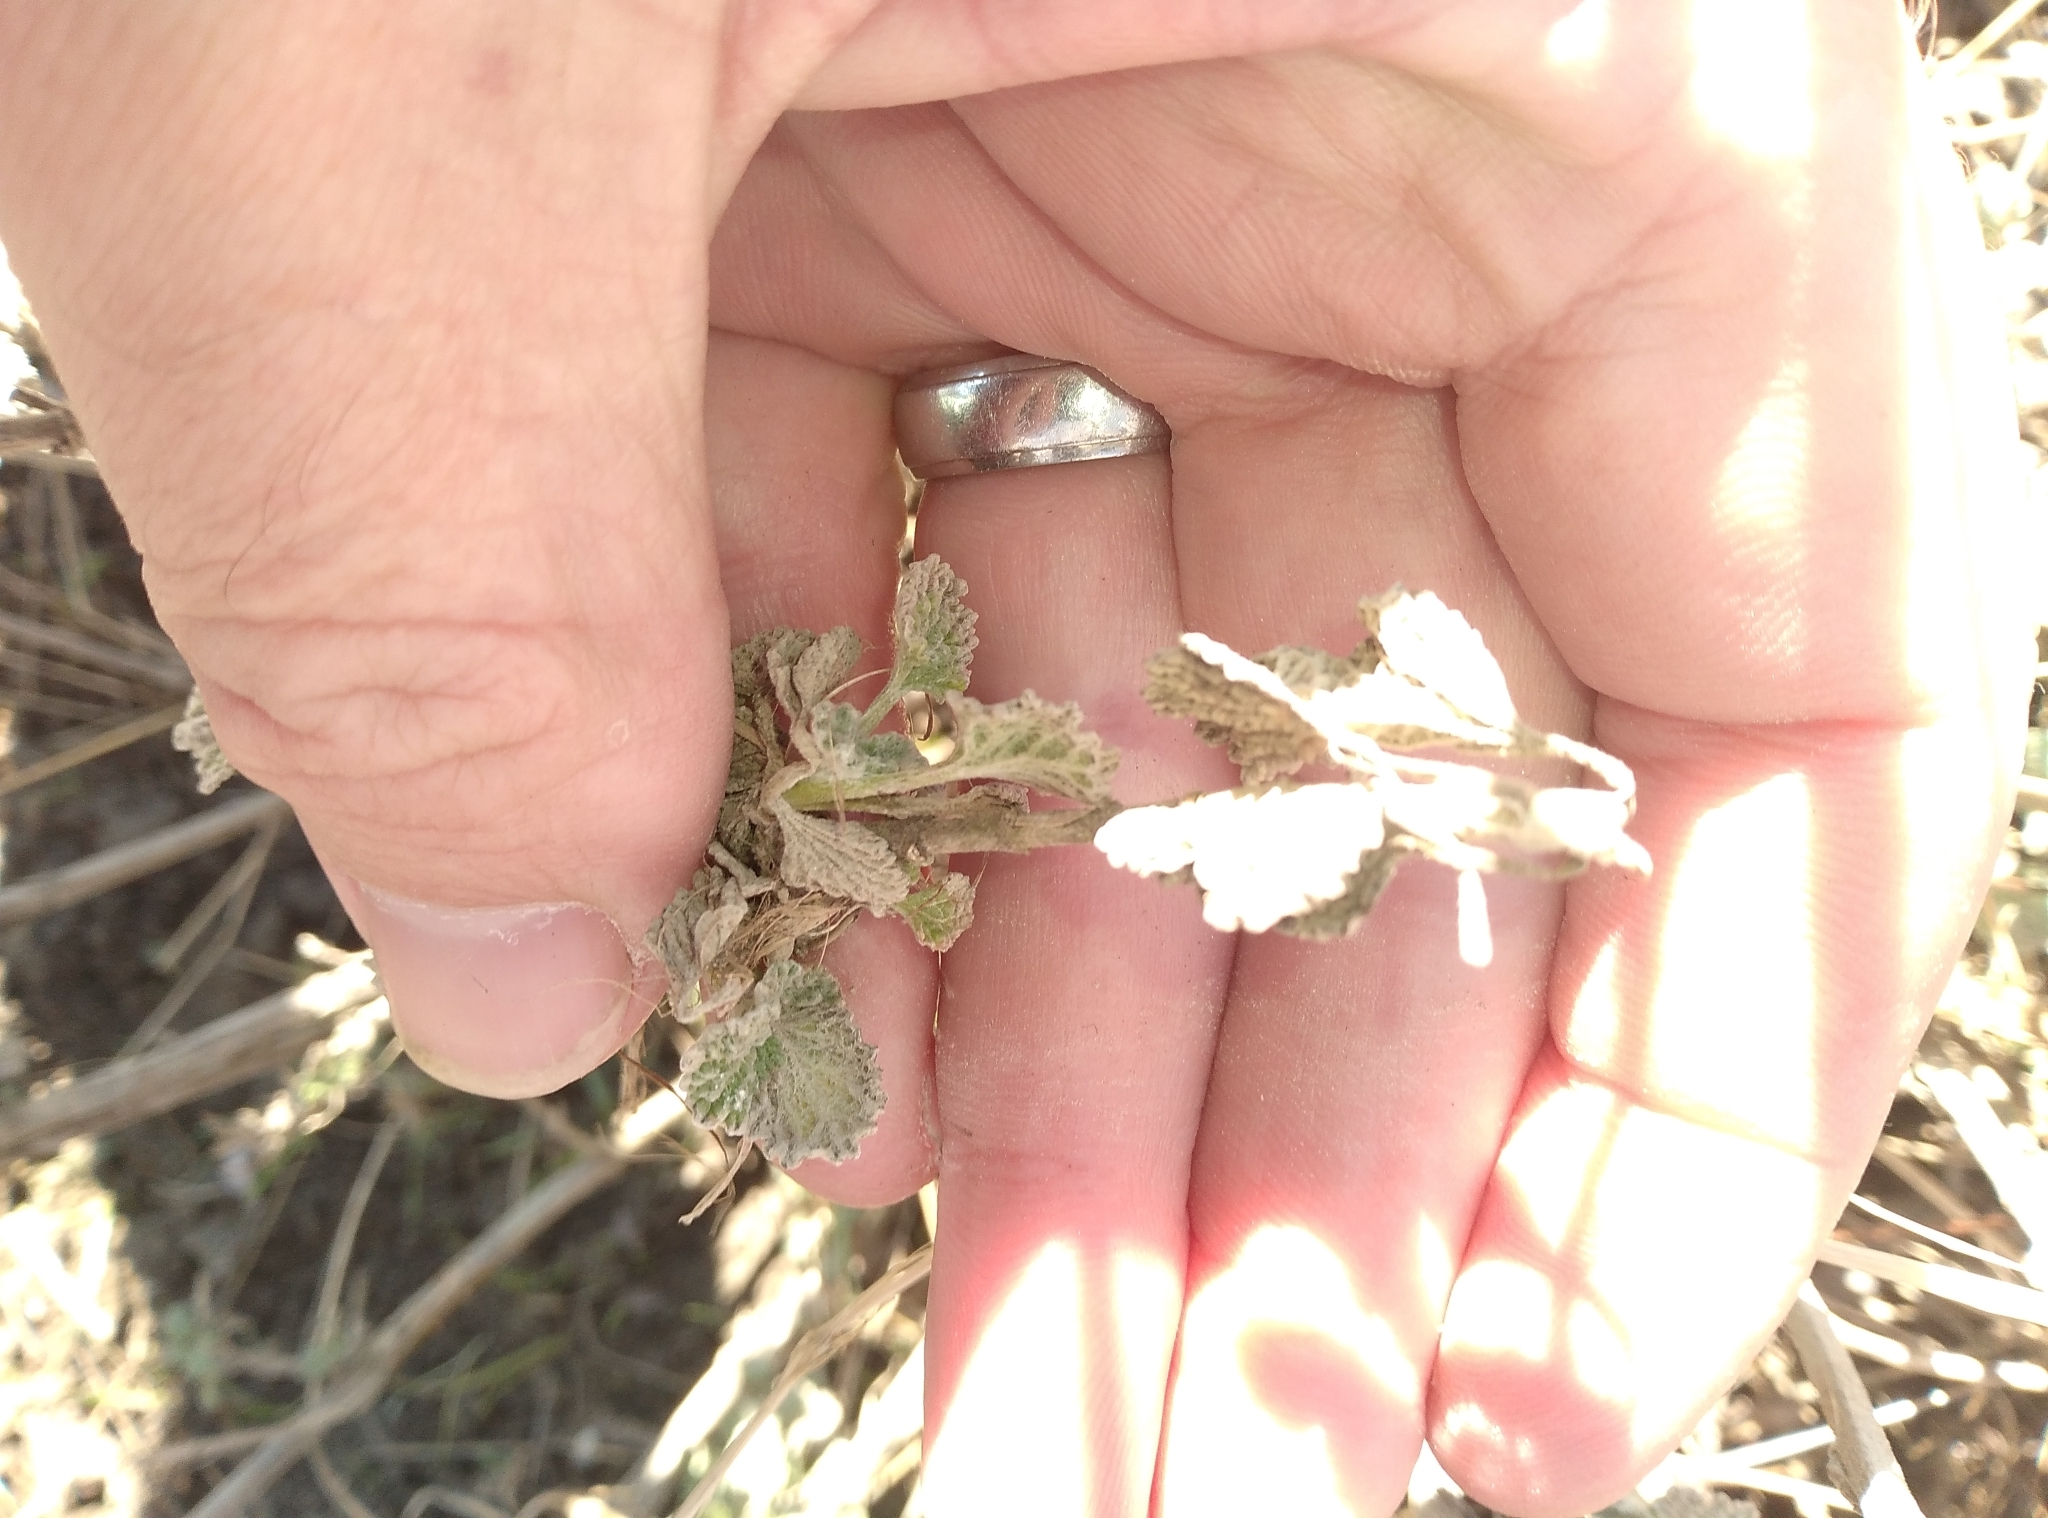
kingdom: Plantae
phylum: Tracheophyta
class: Magnoliopsida
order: Lamiales
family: Lamiaceae
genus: Marrubium
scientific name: Marrubium vulgare
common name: Horehound
